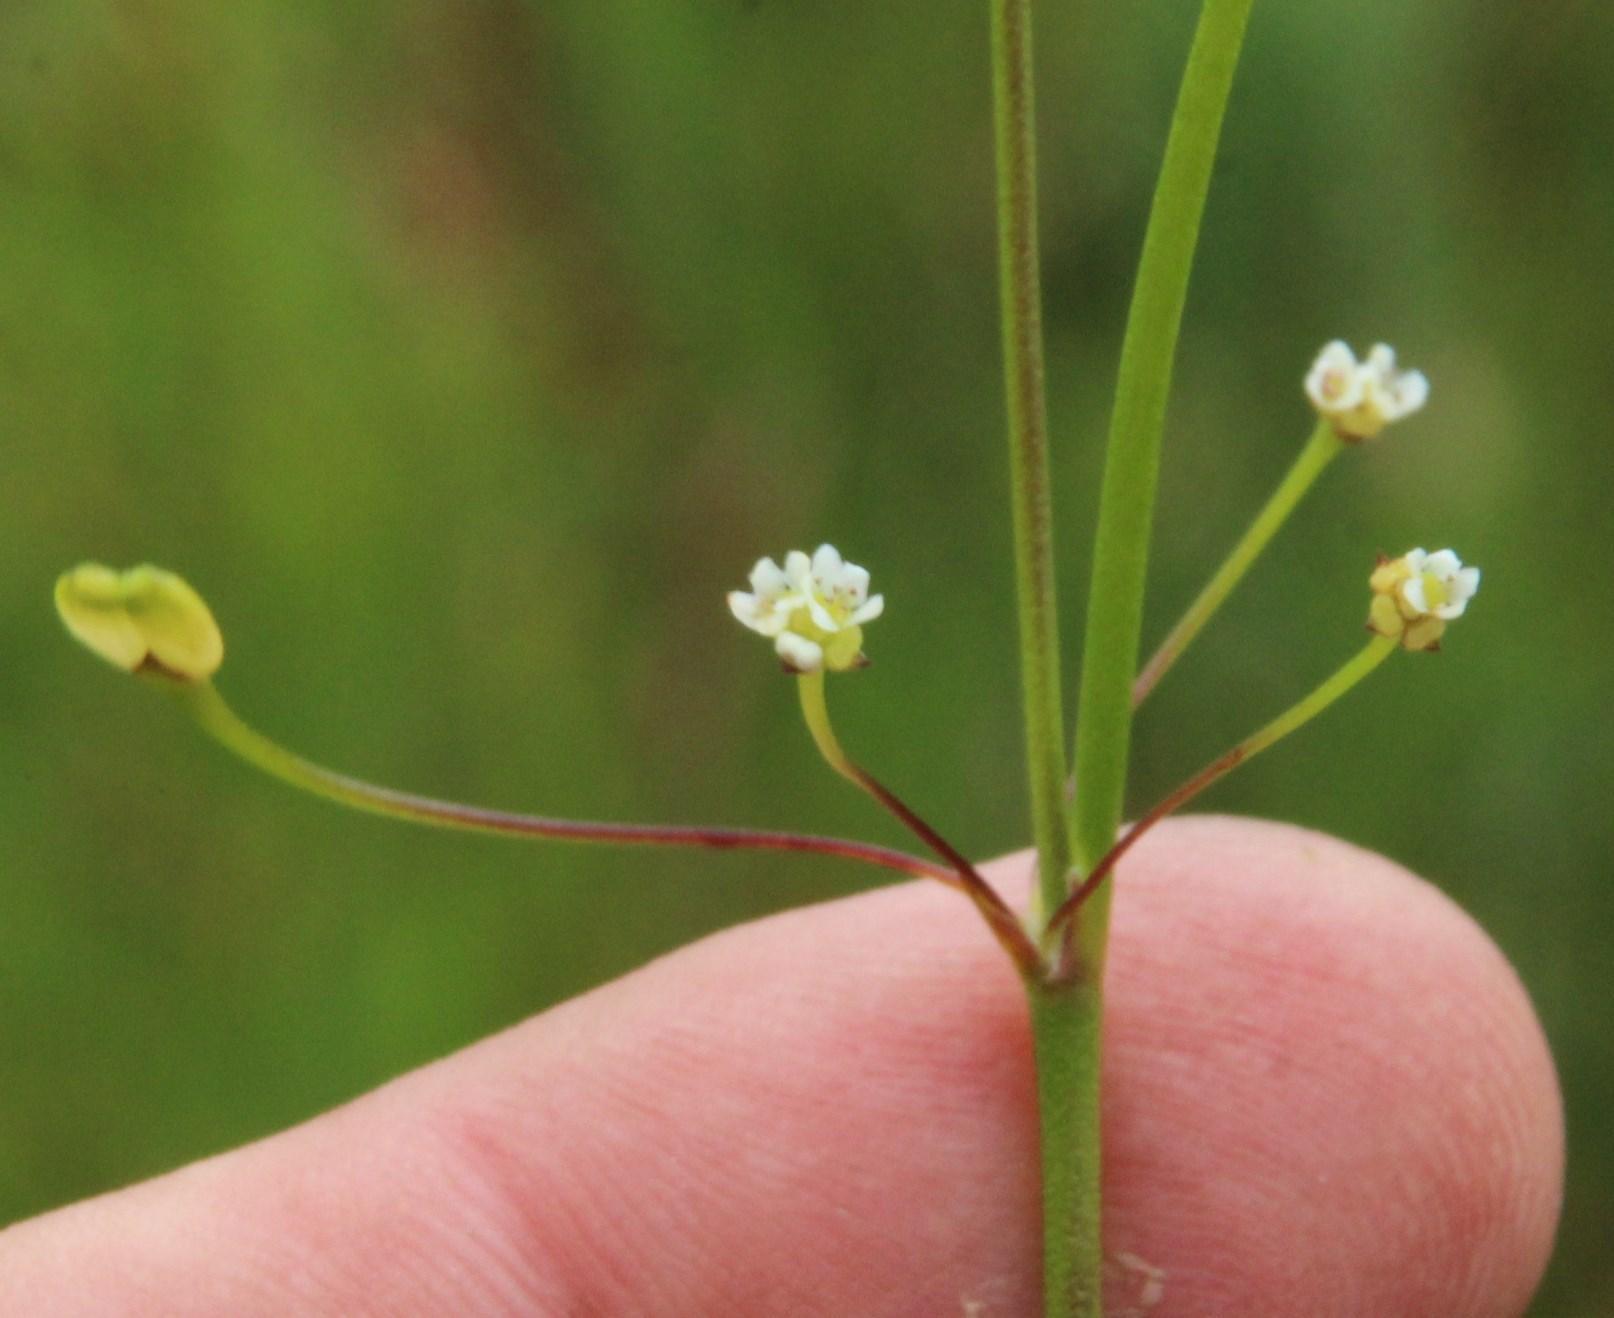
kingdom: Plantae
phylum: Tracheophyta
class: Magnoliopsida
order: Apiales
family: Apiaceae
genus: Centella
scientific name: Centella macrocarpa
